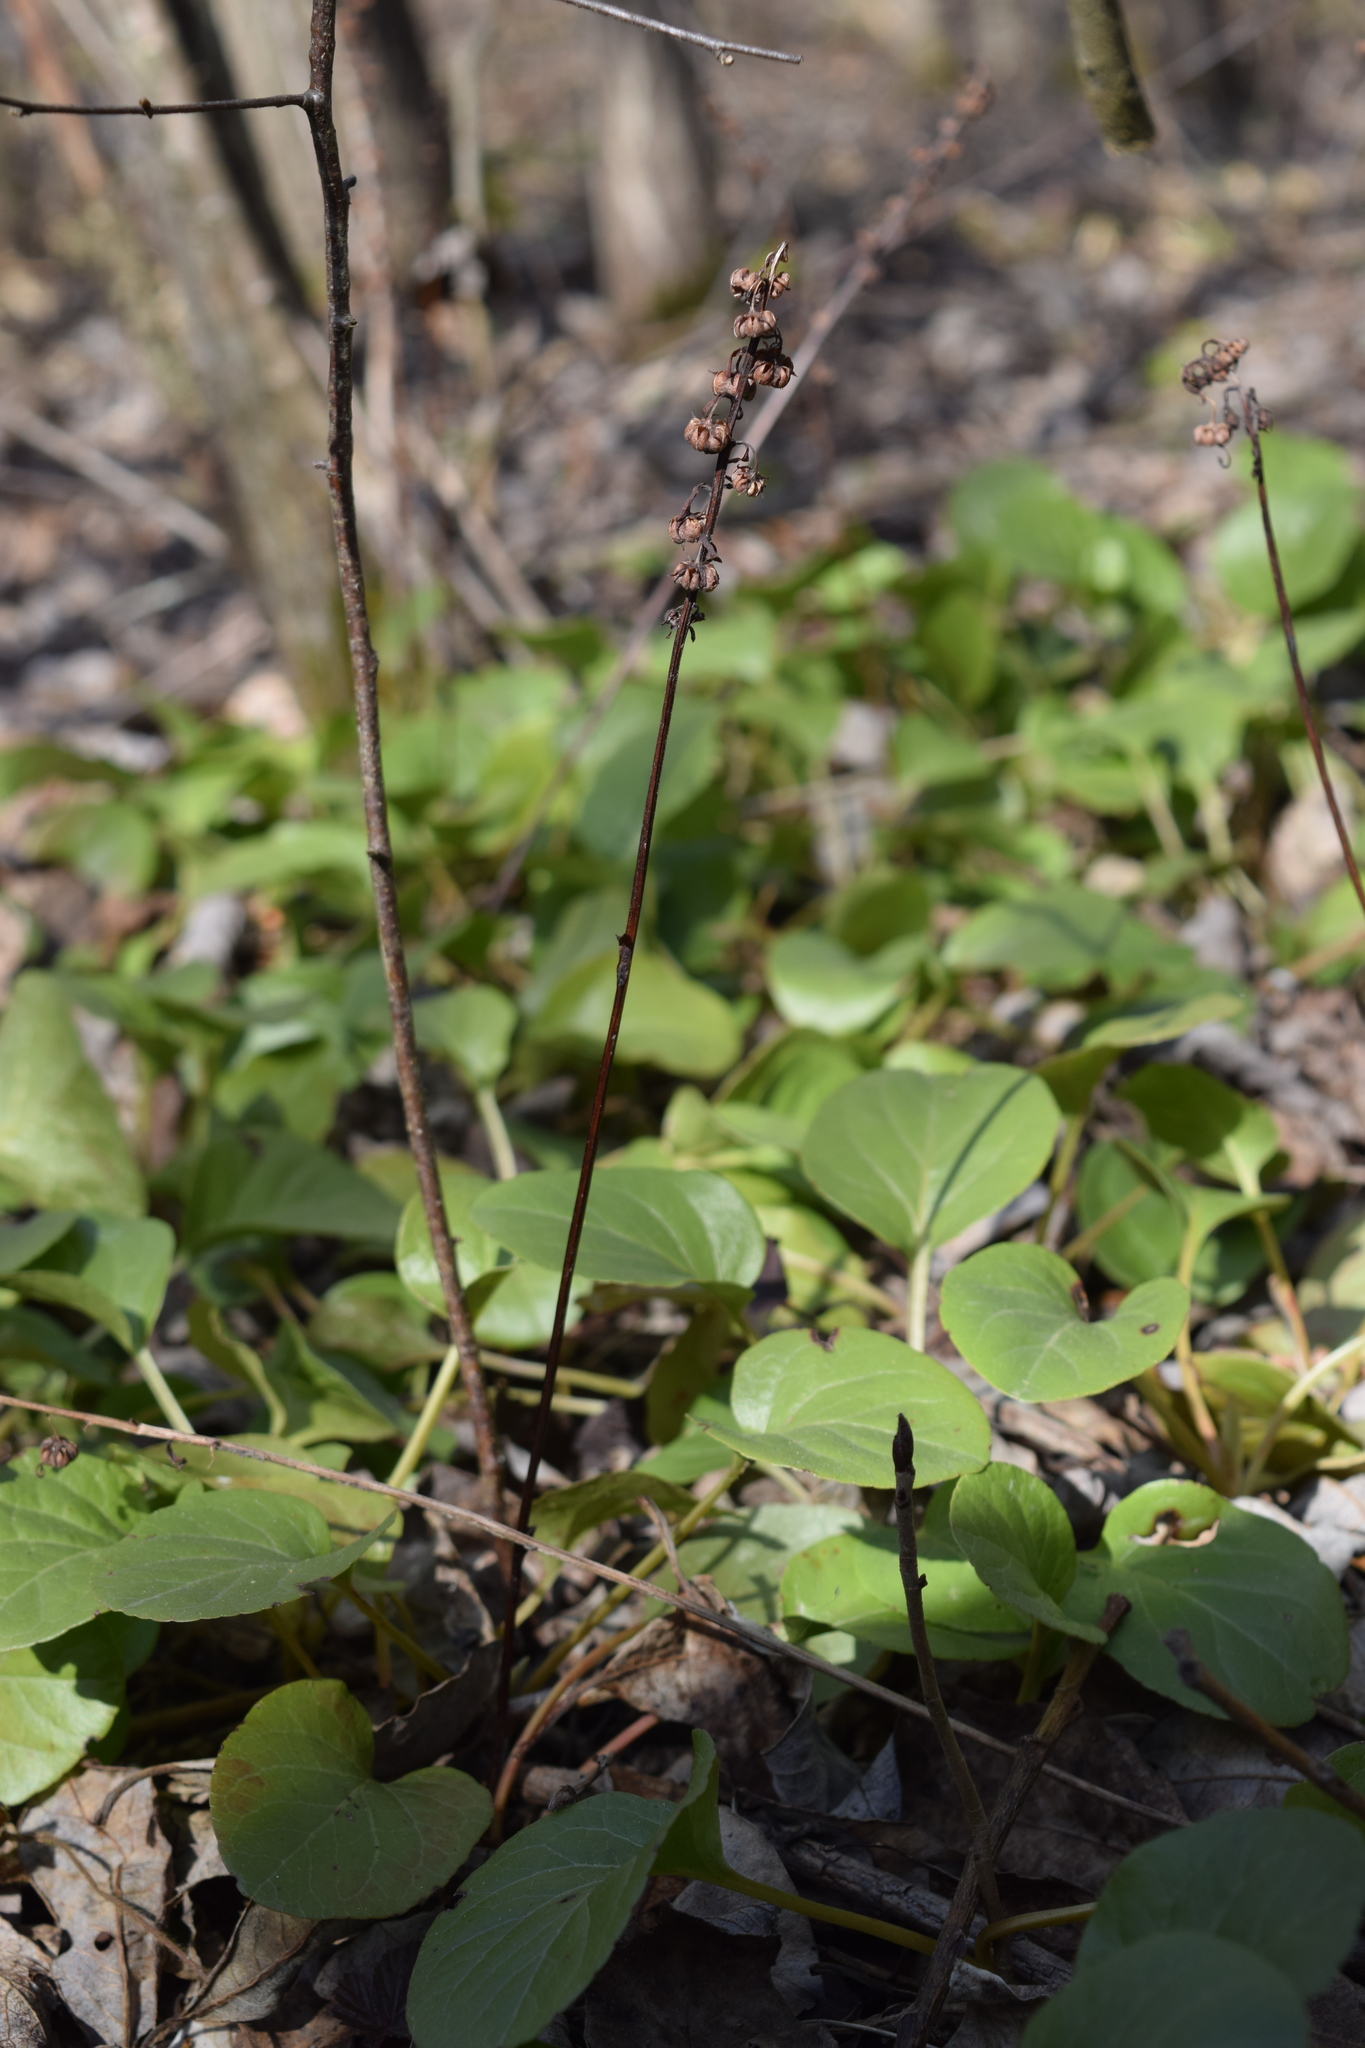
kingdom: Plantae
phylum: Tracheophyta
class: Magnoliopsida
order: Ericales
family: Ericaceae
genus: Pyrola
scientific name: Pyrola rotundifolia
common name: Round-leaved wintergreen
